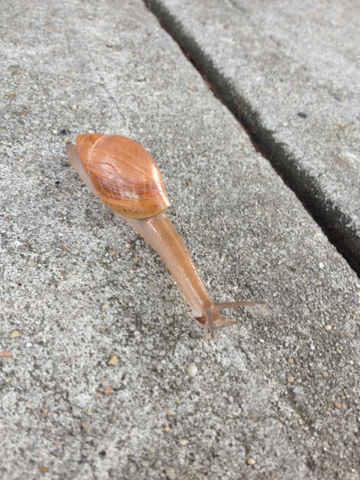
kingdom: Animalia
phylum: Mollusca
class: Gastropoda
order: Stylommatophora
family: Spiraxidae
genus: Euglandina
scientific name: Euglandina rosea
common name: Rosy wolfsnail
